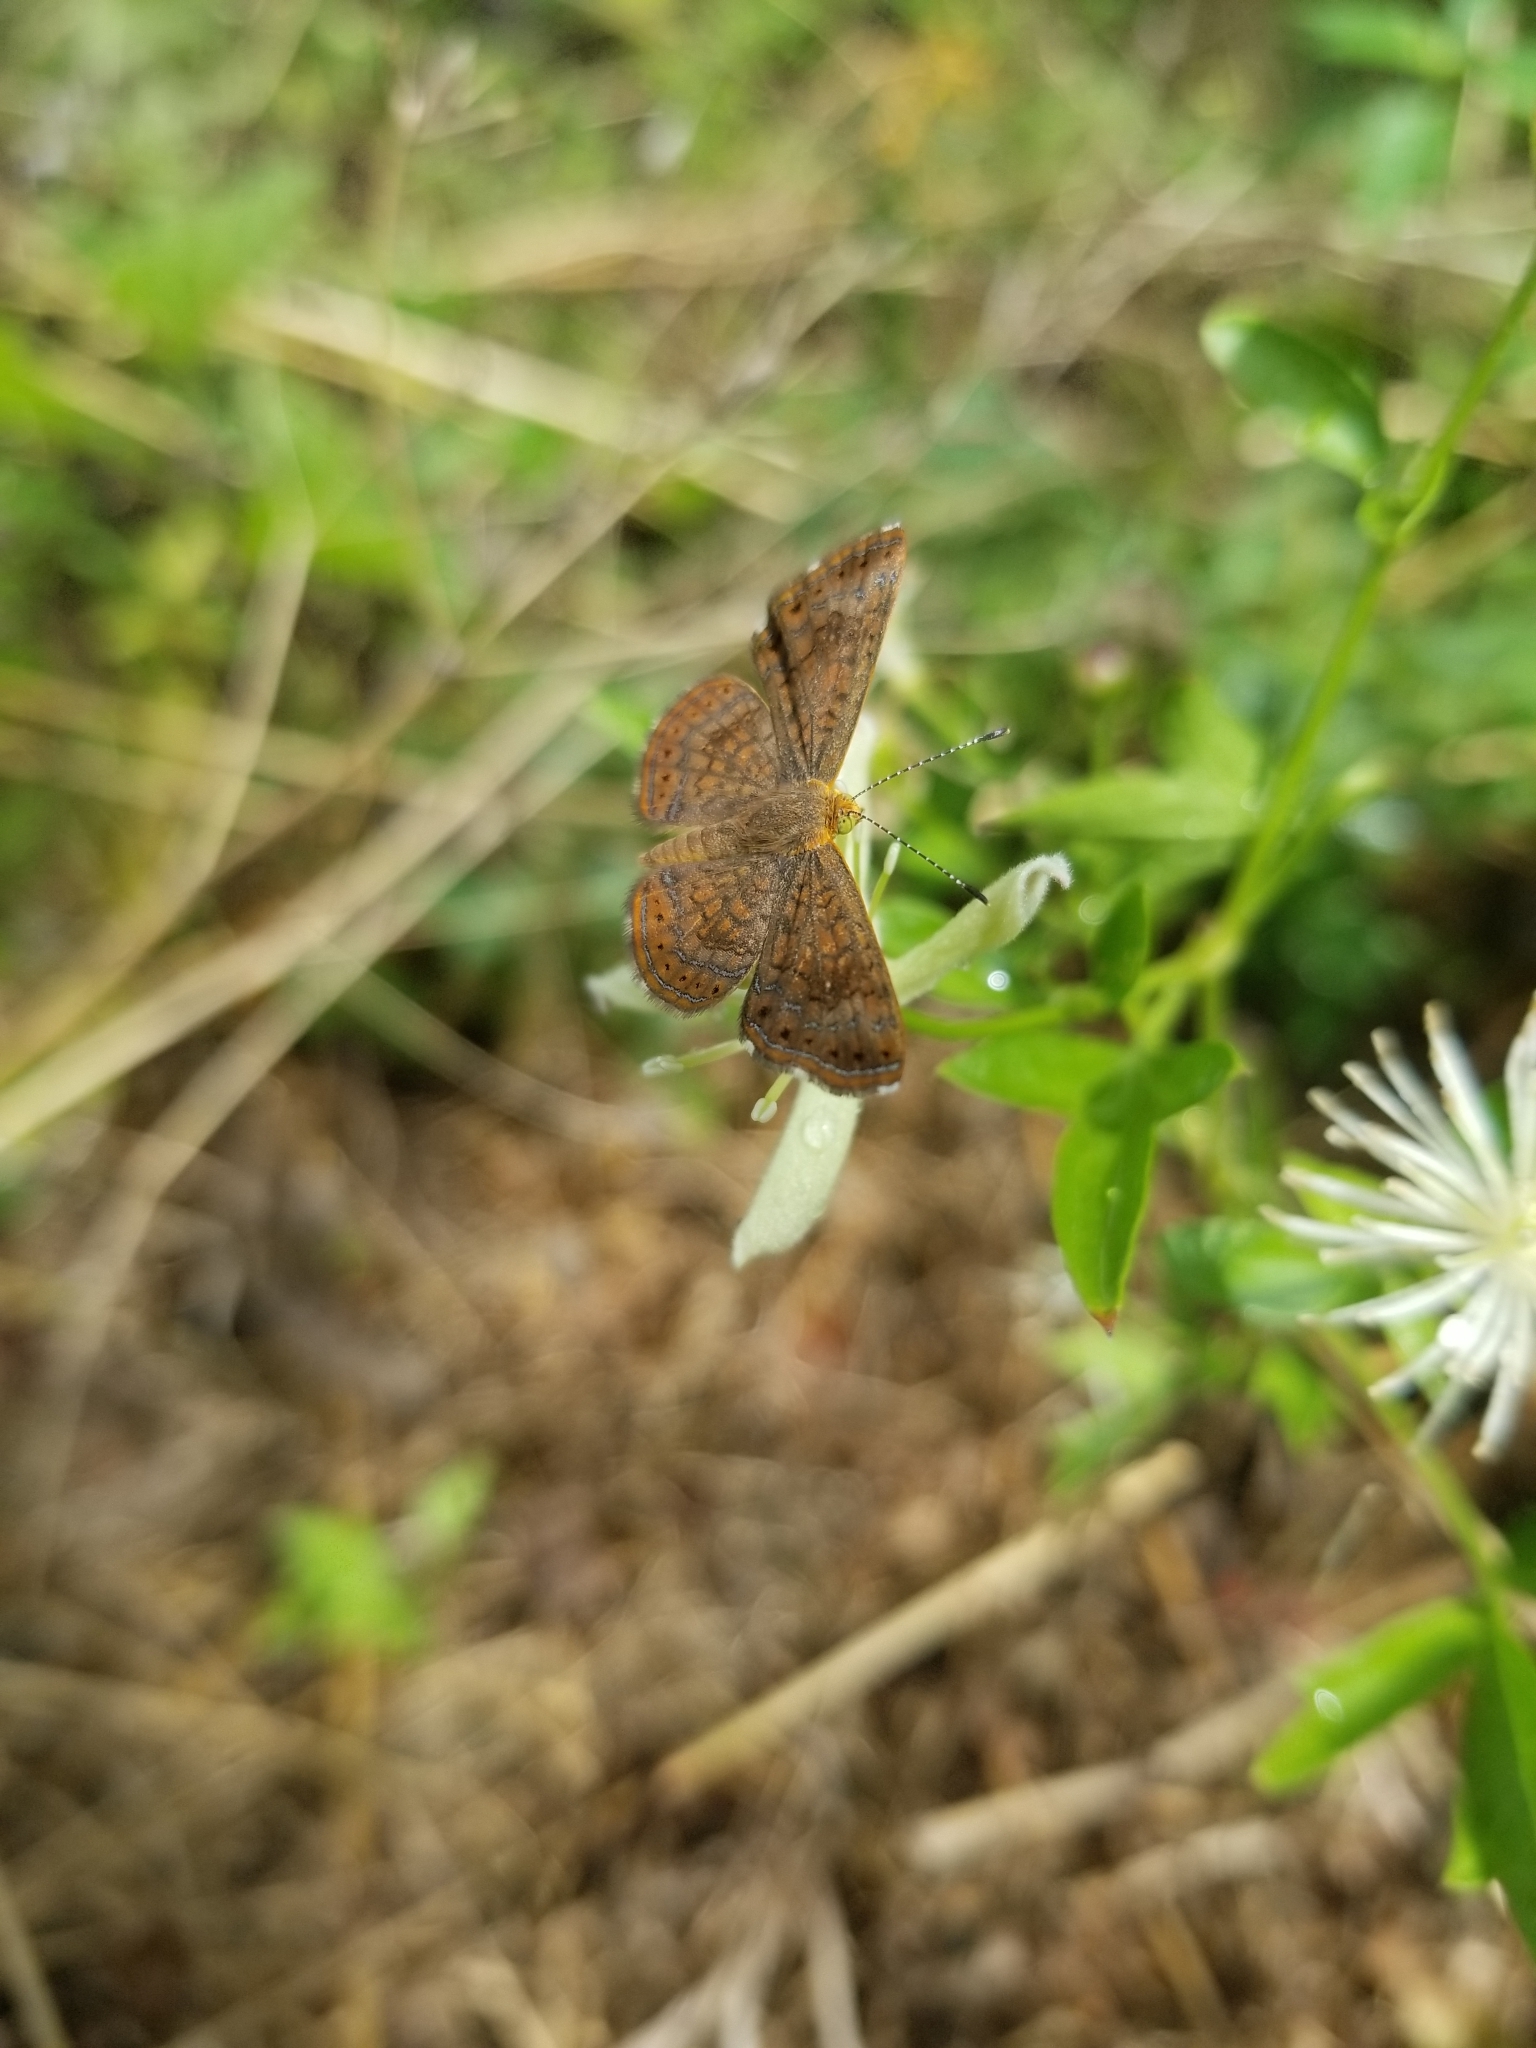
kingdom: Animalia
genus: Calephelis
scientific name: Calephelis nemesis
